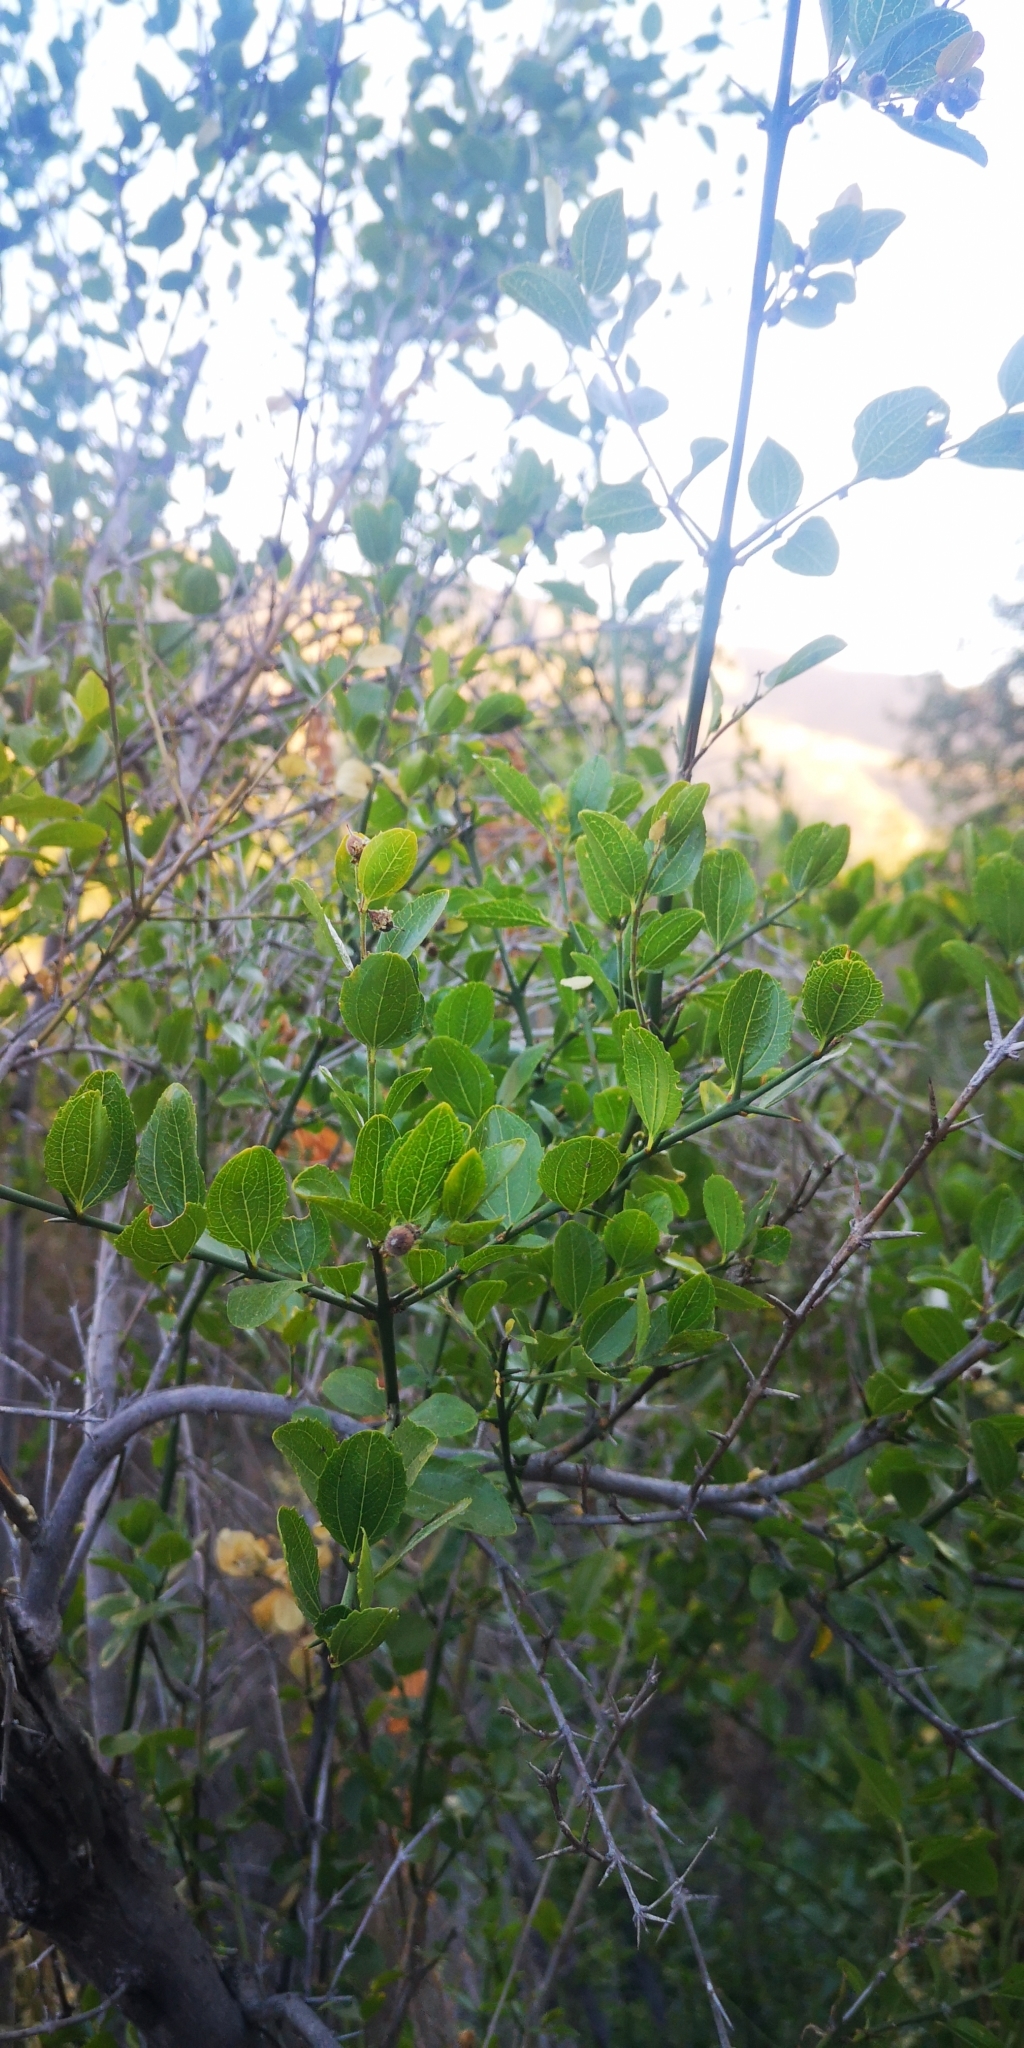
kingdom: Plantae
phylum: Tracheophyta
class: Magnoliopsida
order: Rosales
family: Rhamnaceae
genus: Retanilla
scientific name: Retanilla trinervia
